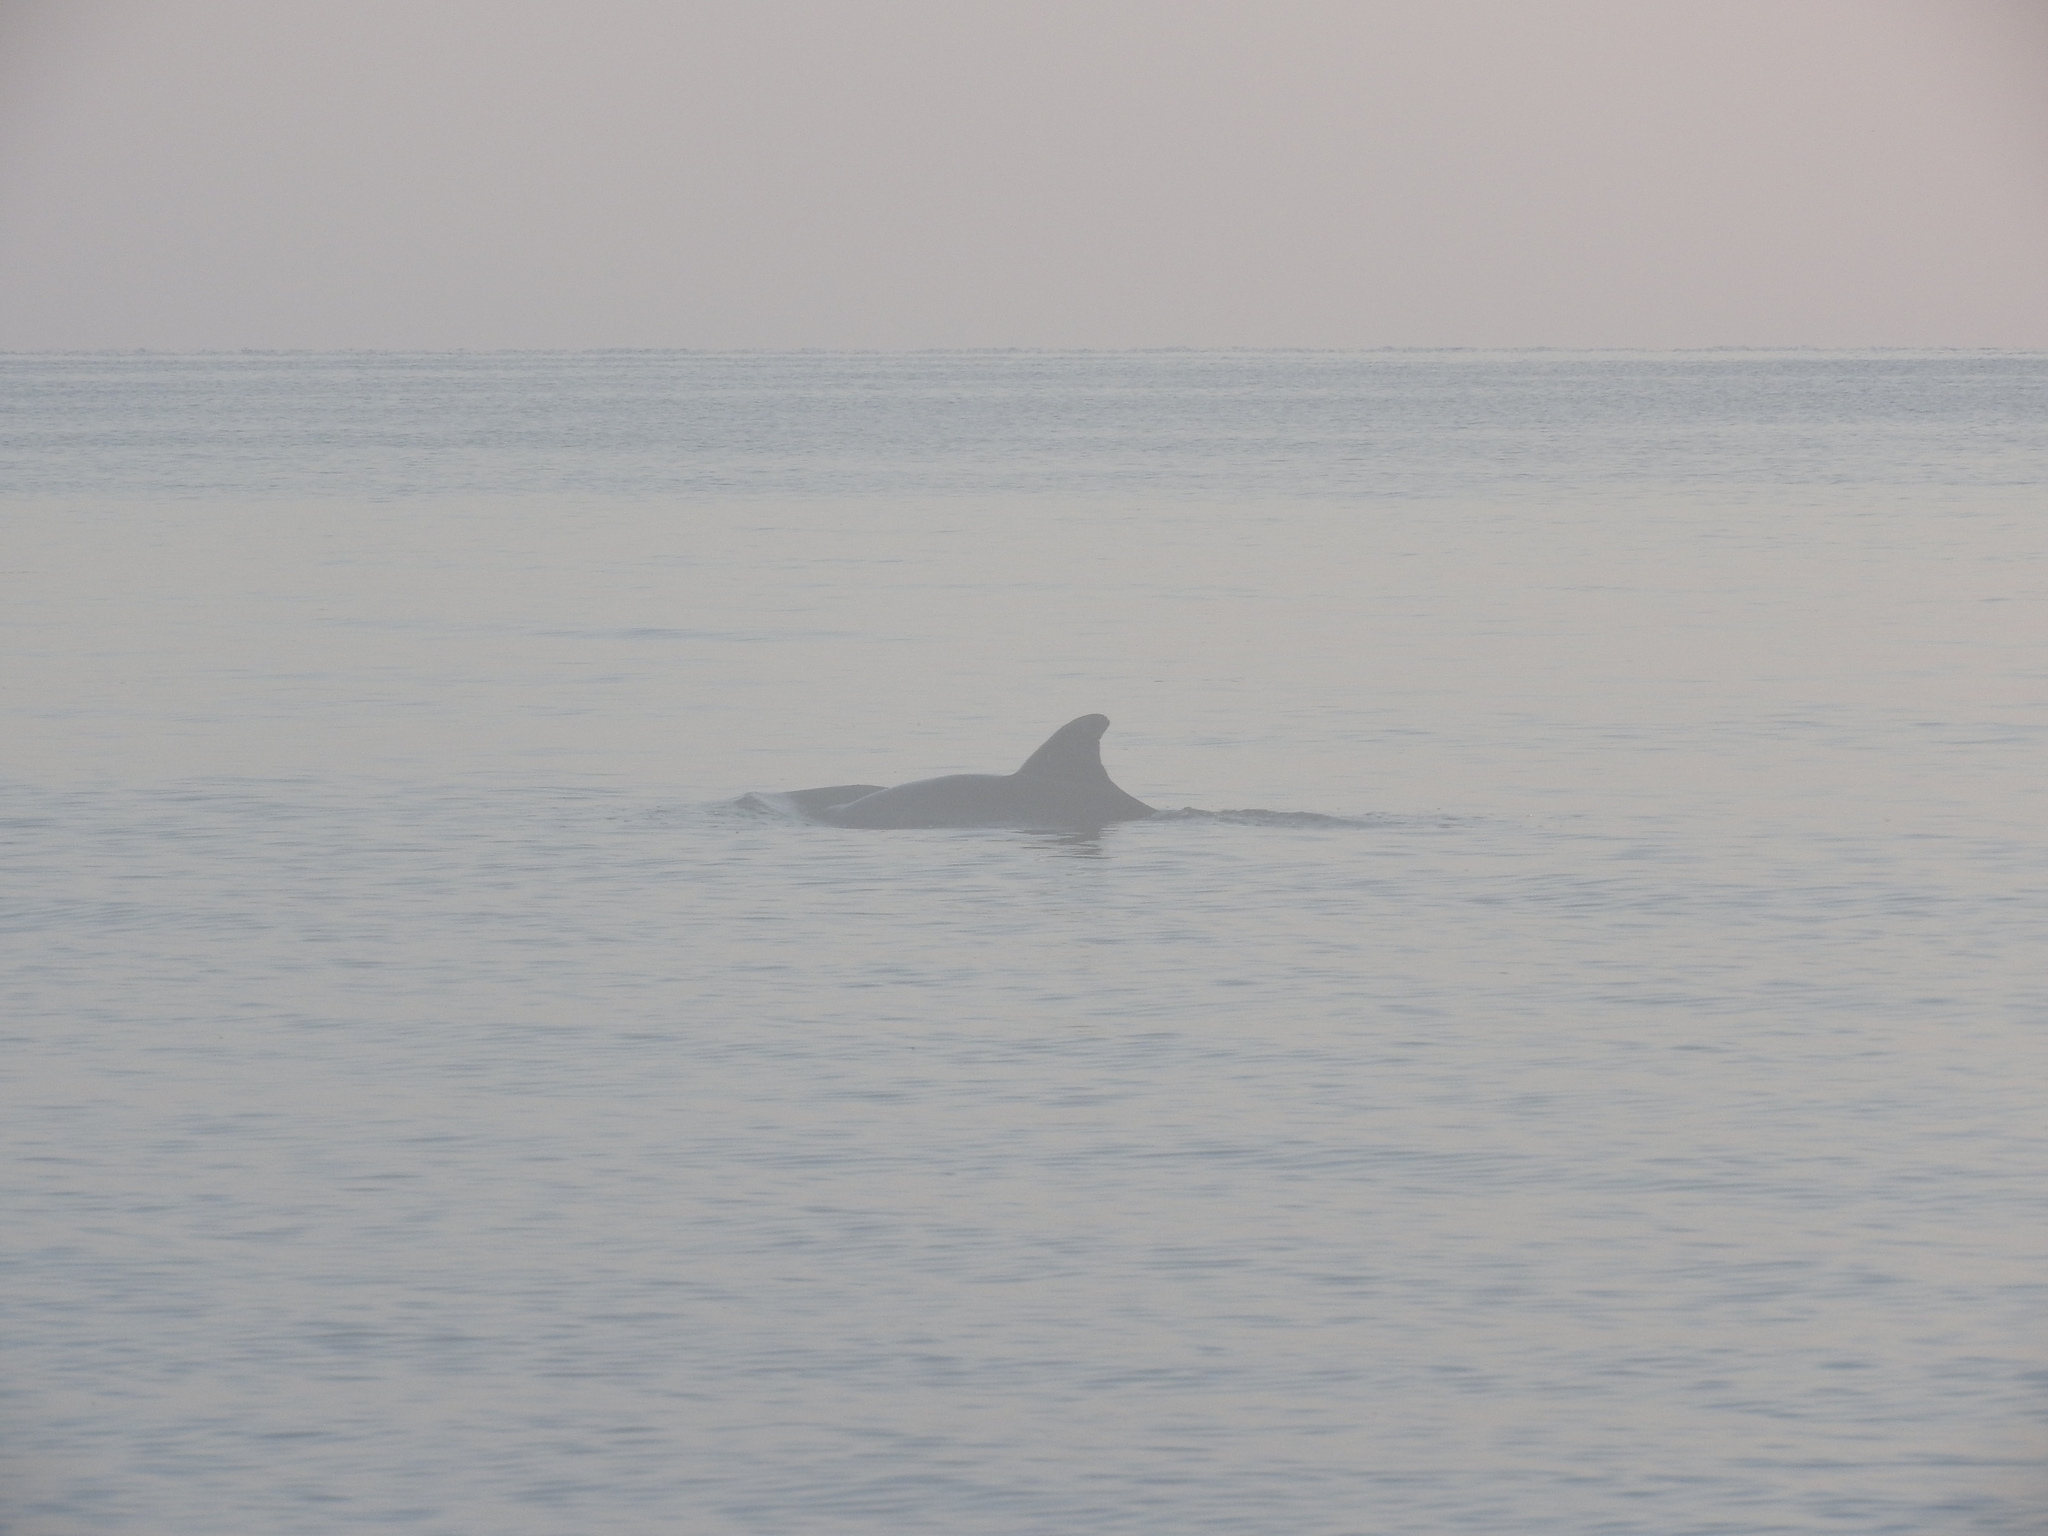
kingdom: Animalia
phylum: Chordata
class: Mammalia
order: Cetacea
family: Delphinidae
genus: Tursiops
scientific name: Tursiops truncatus
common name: Bottlenose dolphin
